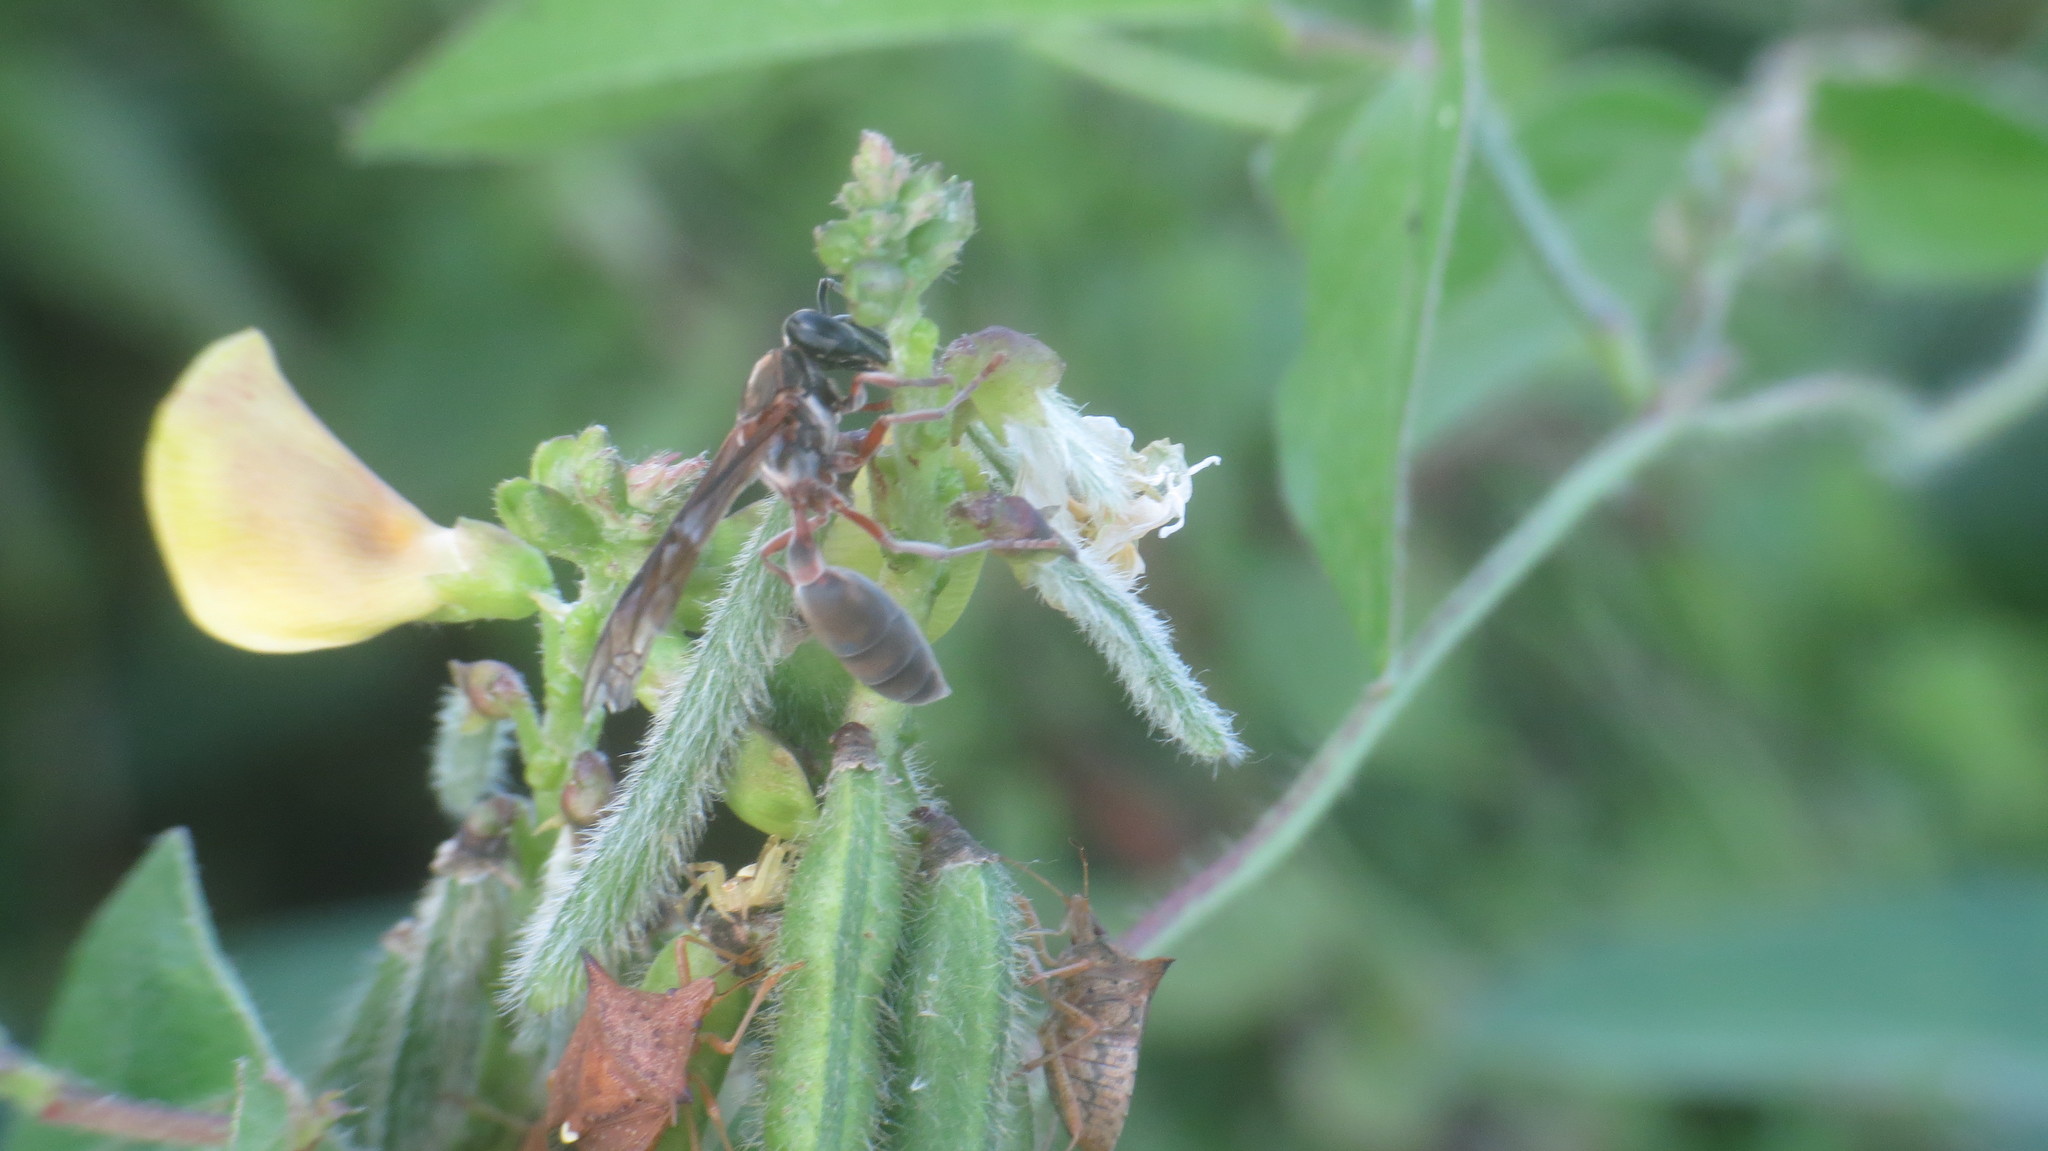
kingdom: Animalia
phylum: Arthropoda
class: Insecta
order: Hymenoptera
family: Eumenidae
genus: Polybia
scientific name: Polybia sericea
